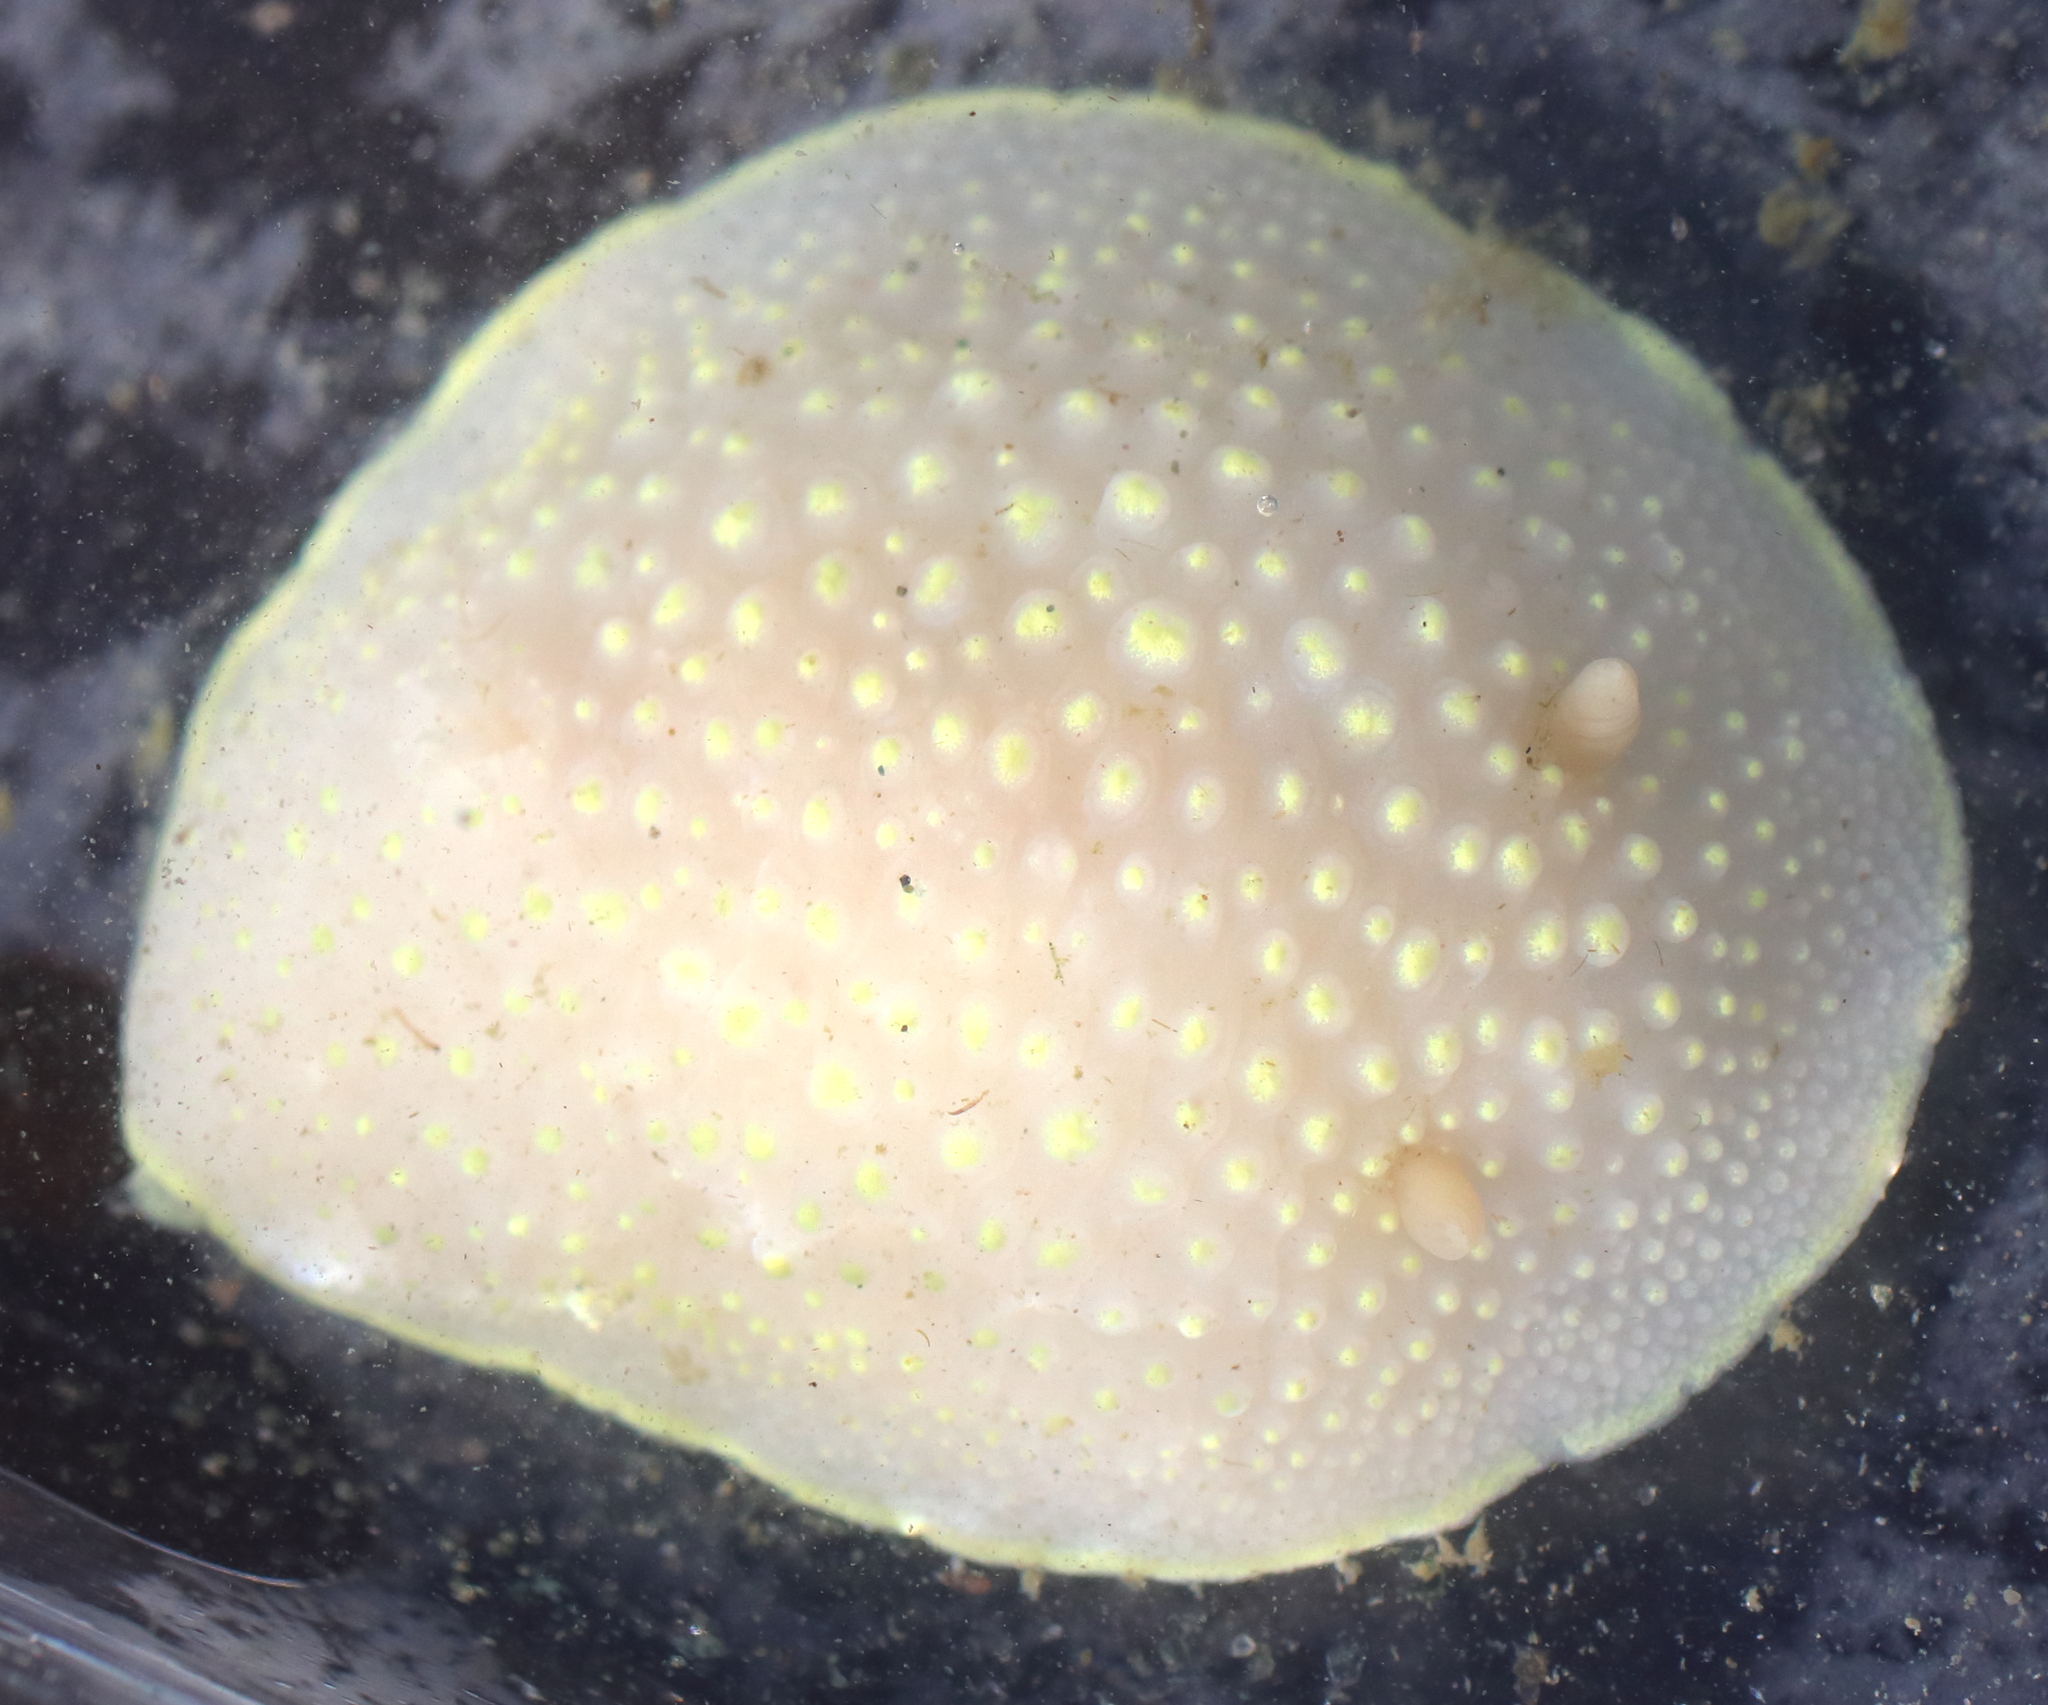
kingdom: Animalia
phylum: Mollusca
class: Gastropoda
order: Nudibranchia
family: Cadlinidae
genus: Cadlina
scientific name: Cadlina luteomarginata
